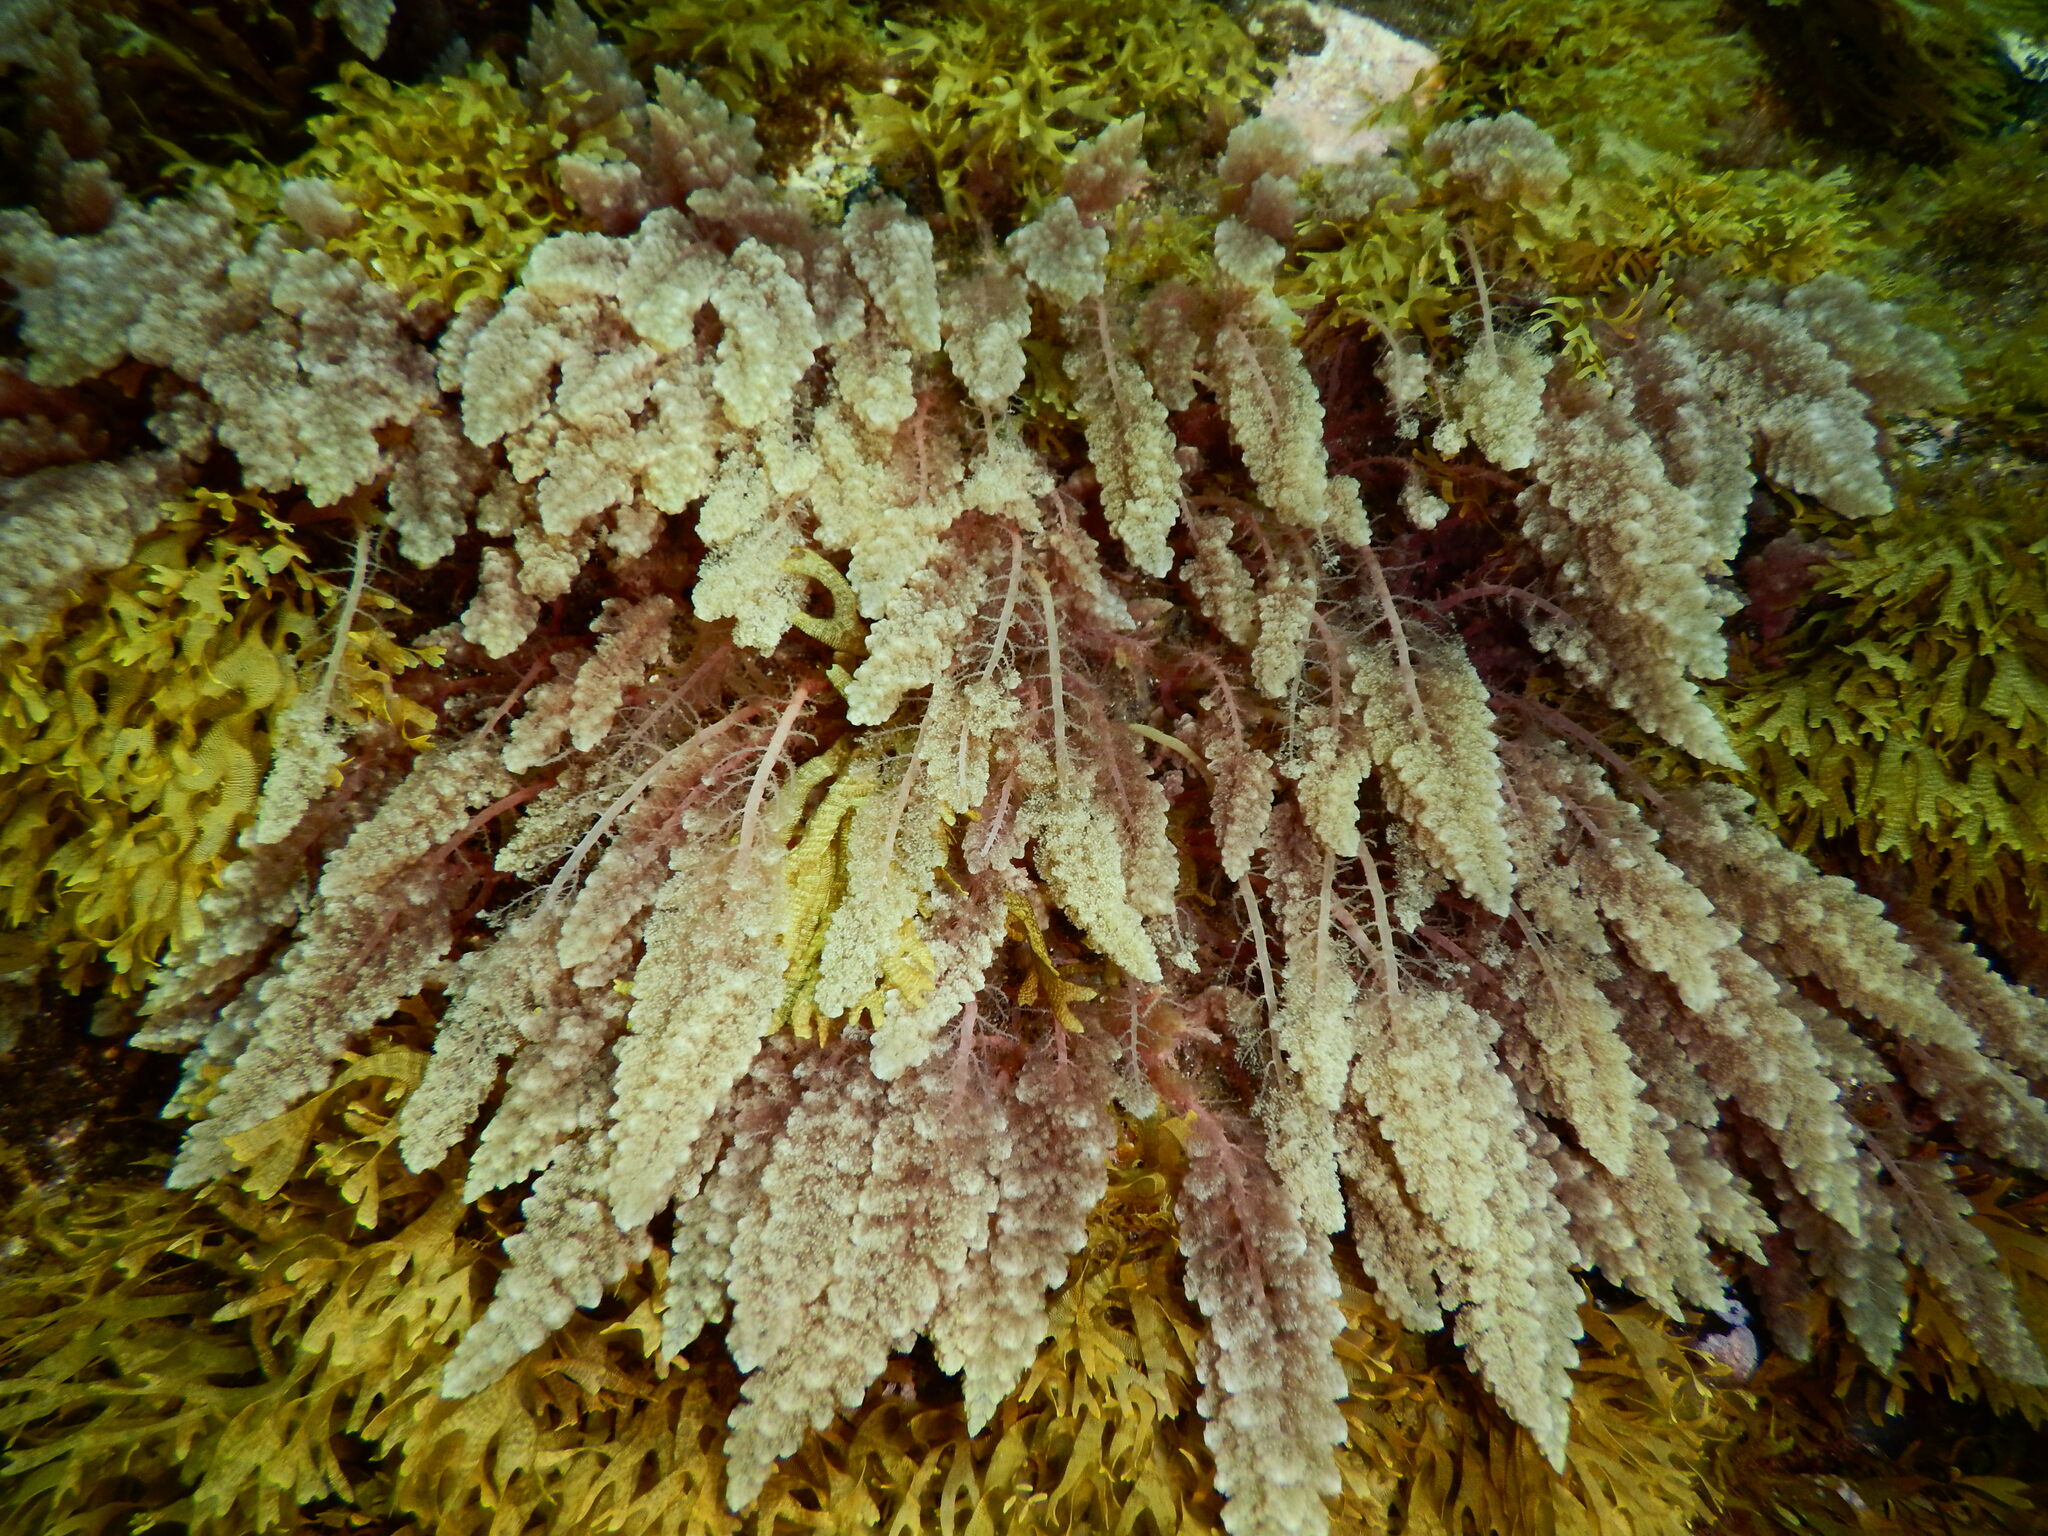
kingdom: Plantae
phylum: Rhodophyta
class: Florideophyceae
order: Bonnemaisoniales
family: Bonnemaisoniaceae
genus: Asparagopsis
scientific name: Asparagopsis taxiformis
